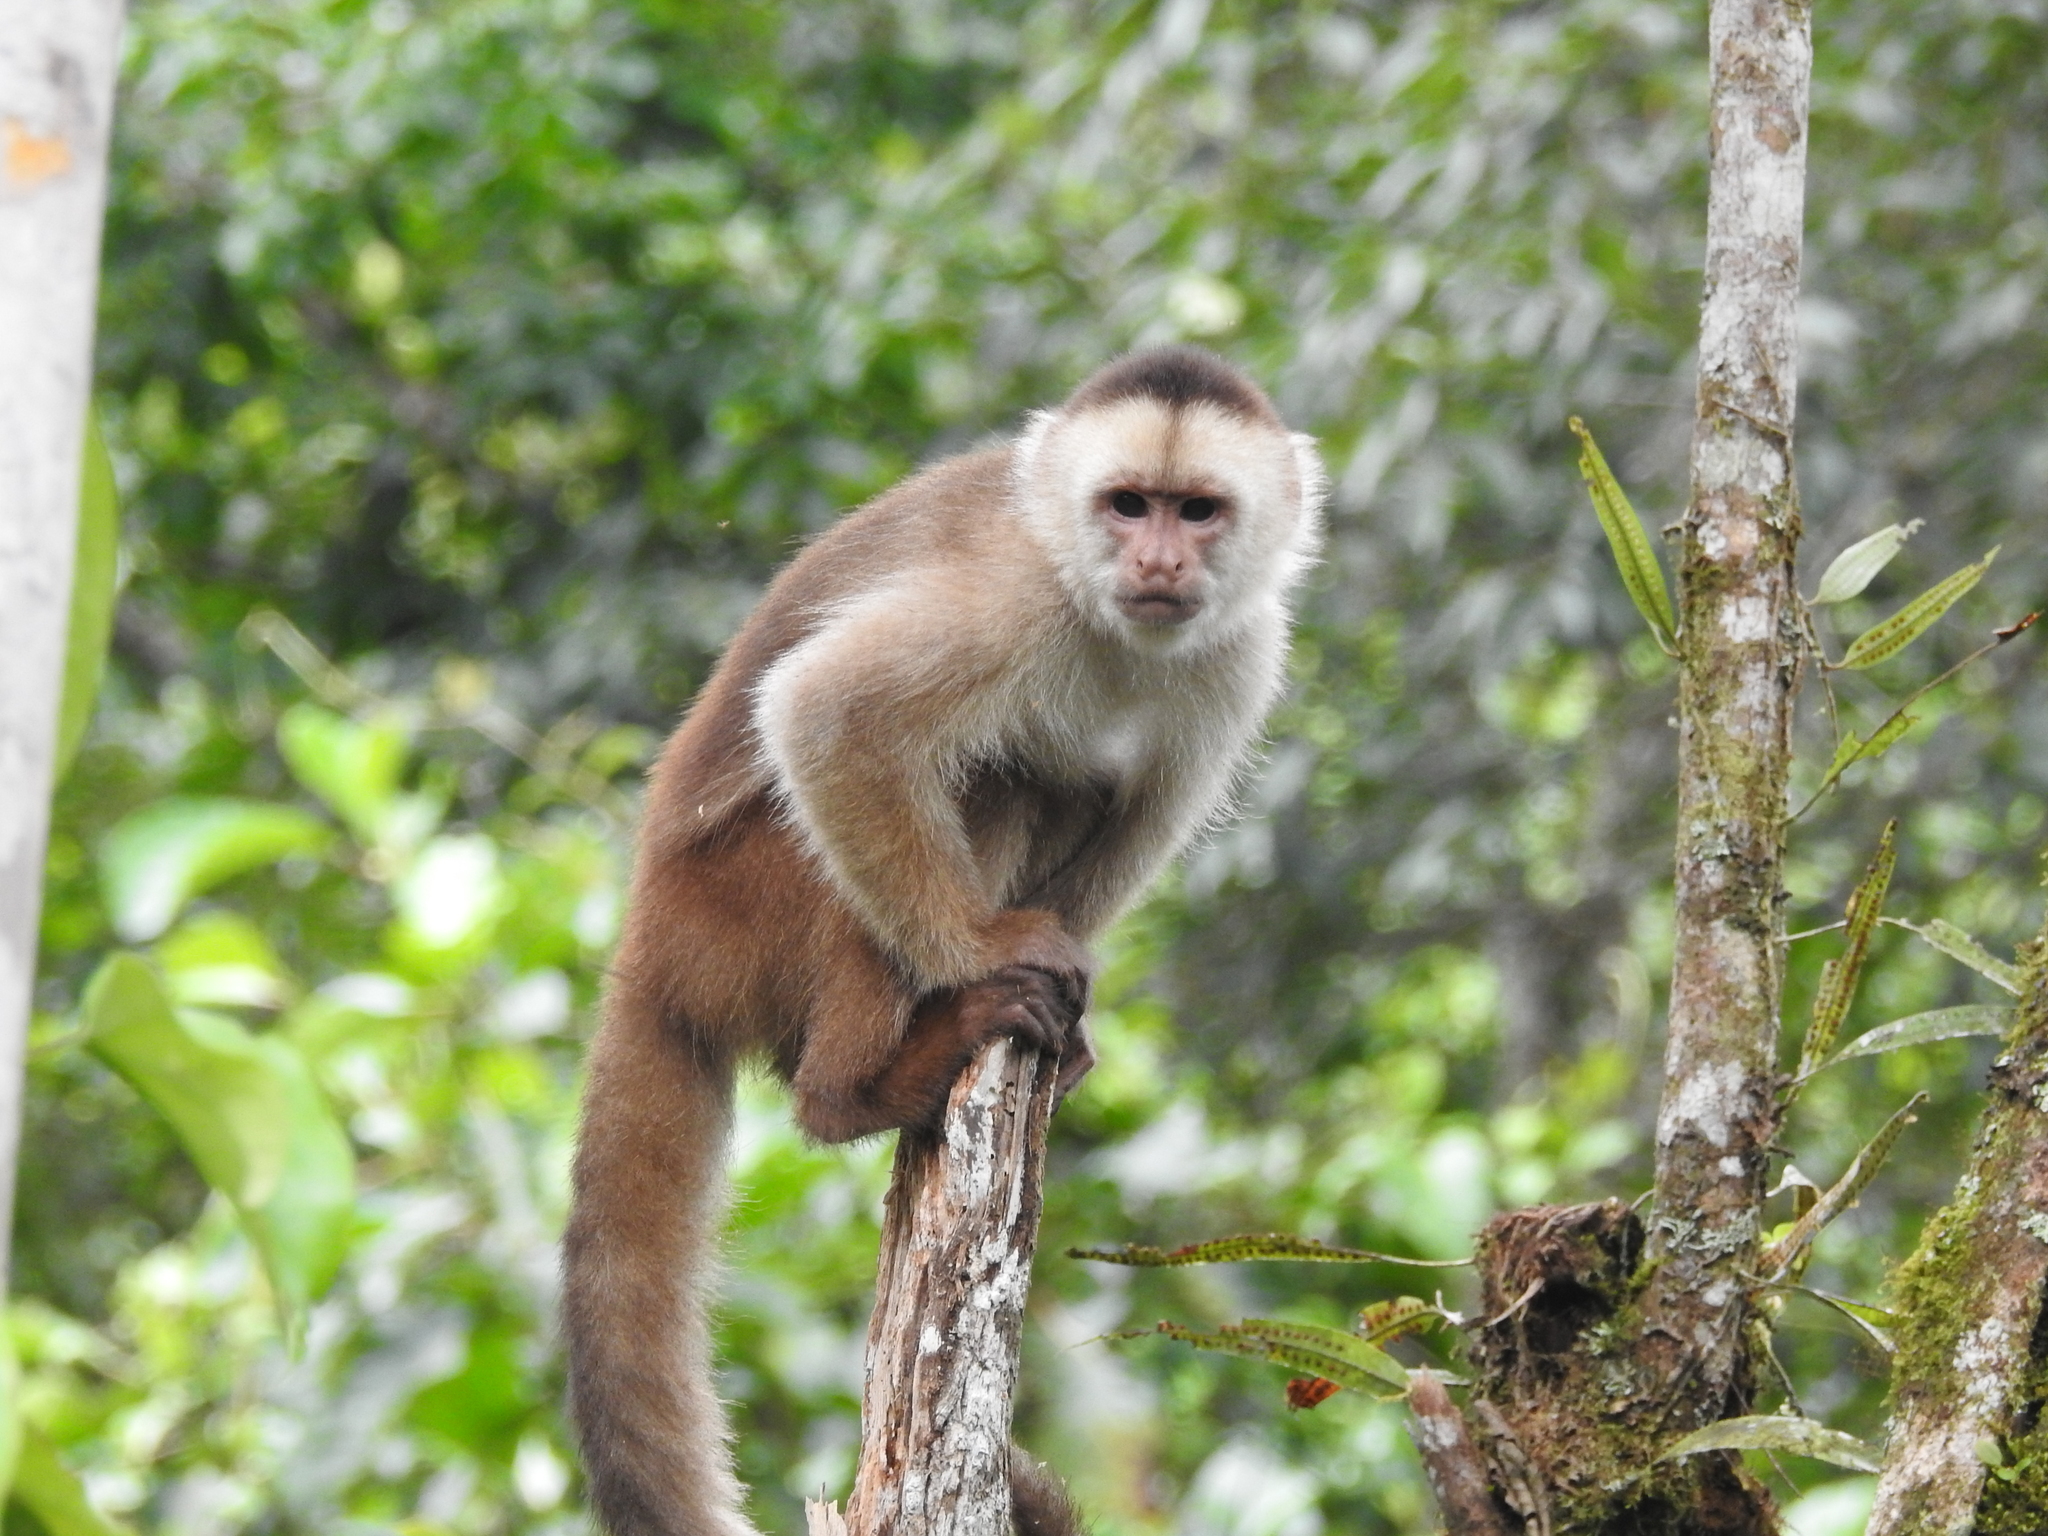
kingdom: Animalia
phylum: Chordata
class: Mammalia
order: Primates
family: Cebidae
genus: Cebus
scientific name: Cebus yuracus
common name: Peruvian white-fronted capuchin
